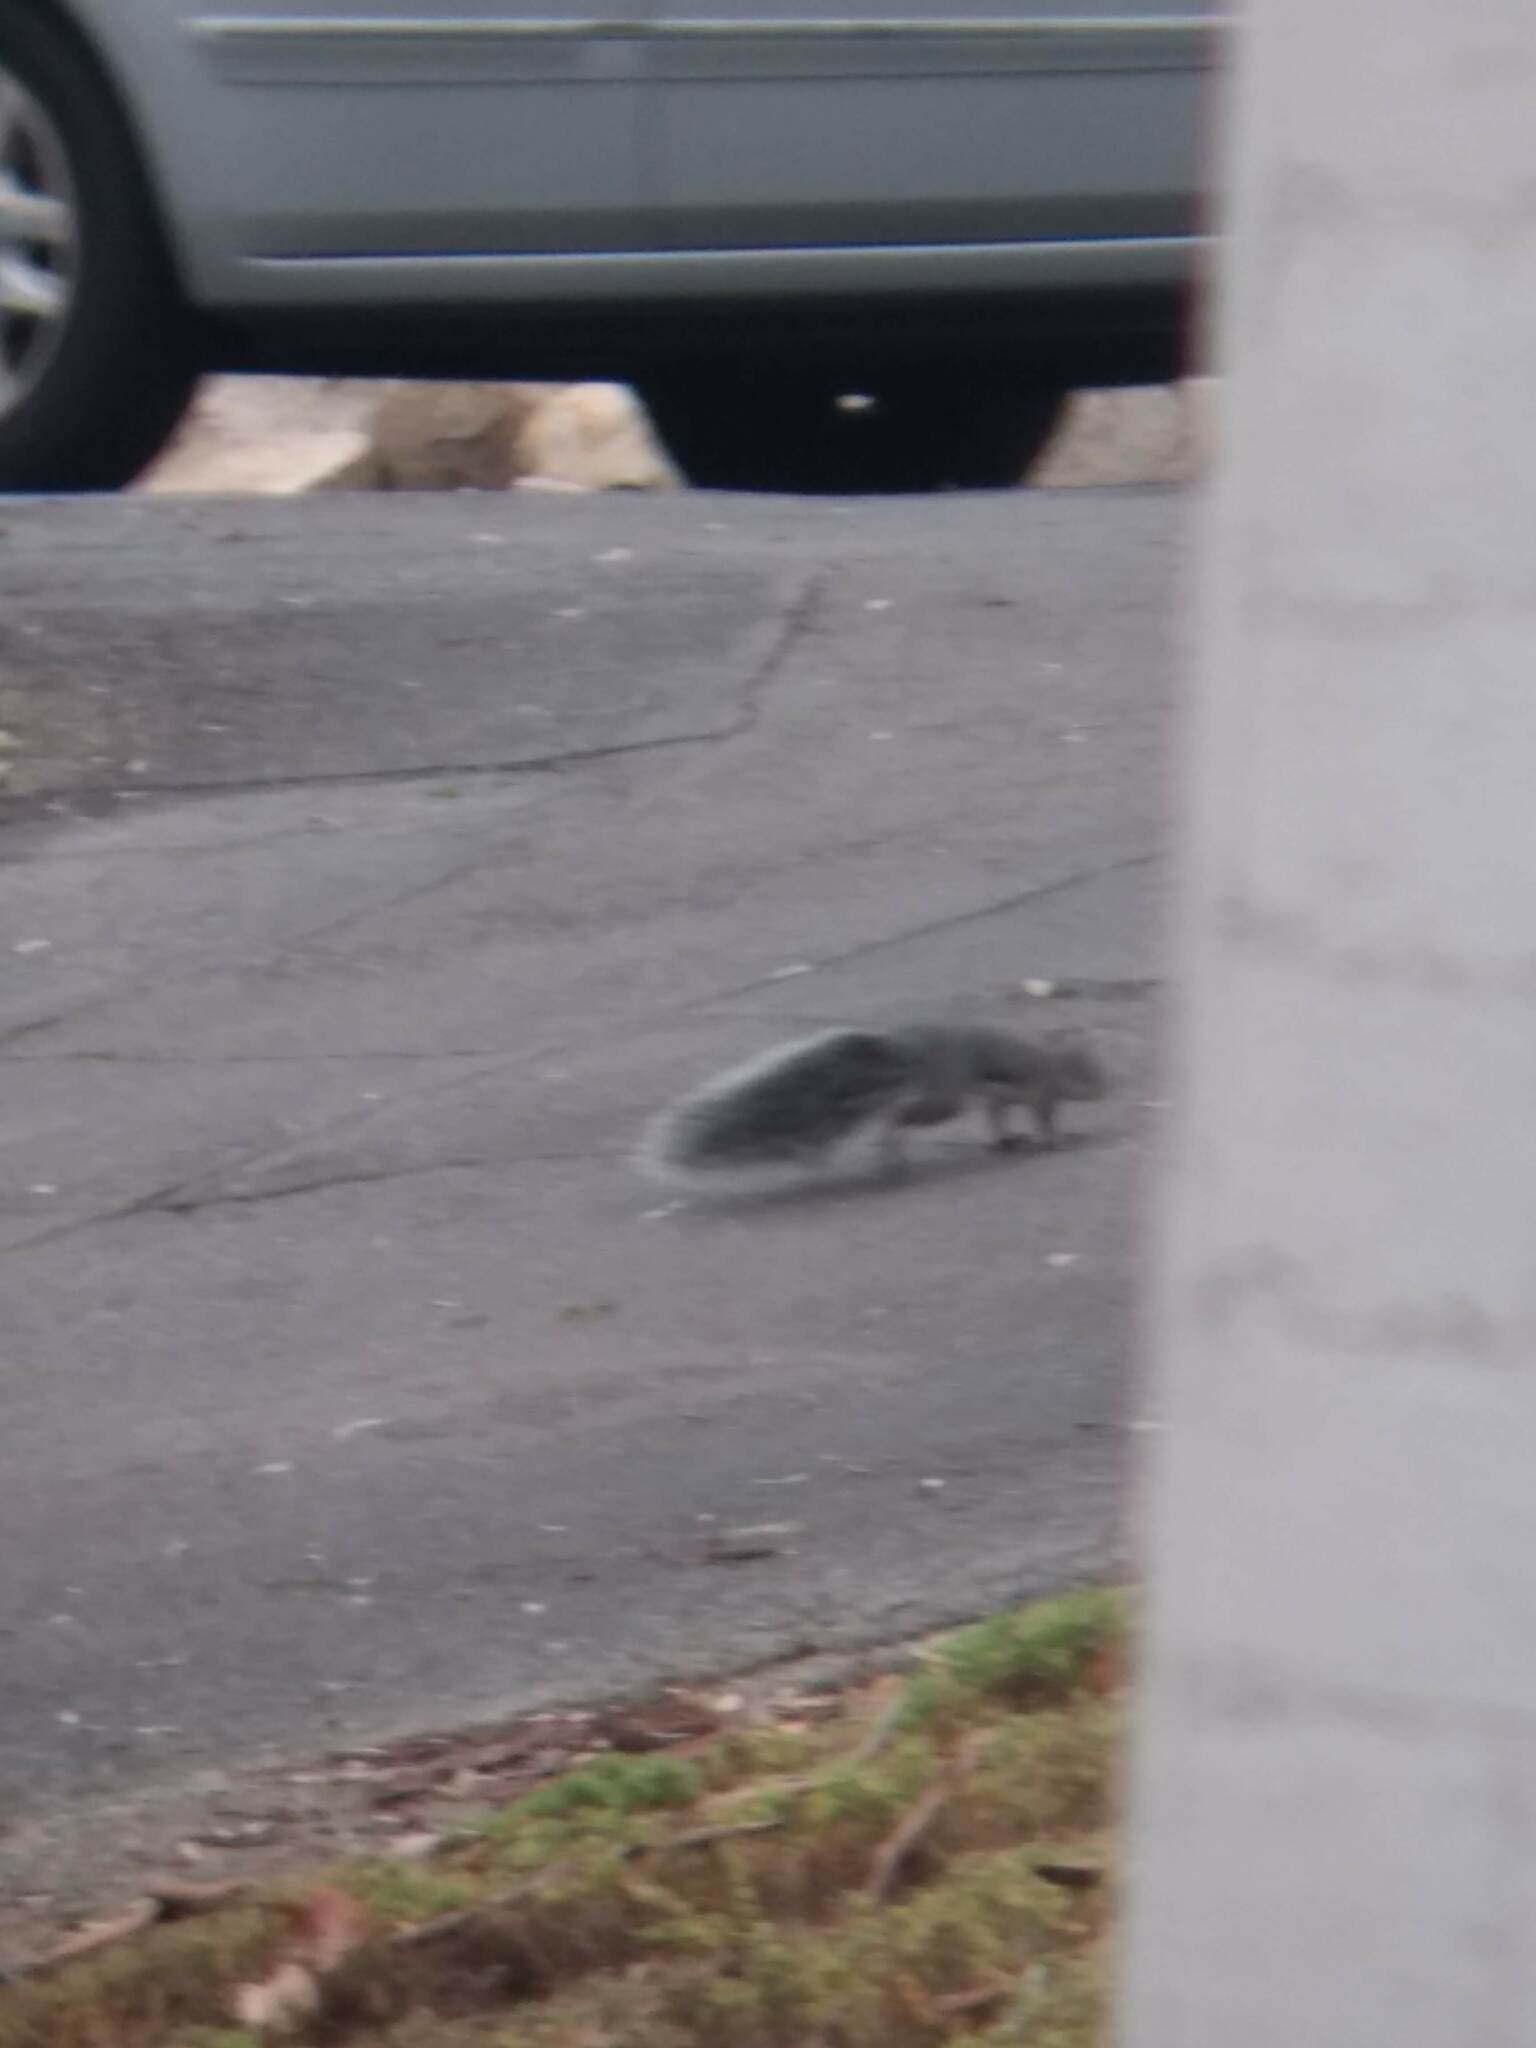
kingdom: Animalia
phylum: Chordata
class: Mammalia
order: Rodentia
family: Sciuridae
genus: Sciurus
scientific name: Sciurus griseus
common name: Western gray squirrel
